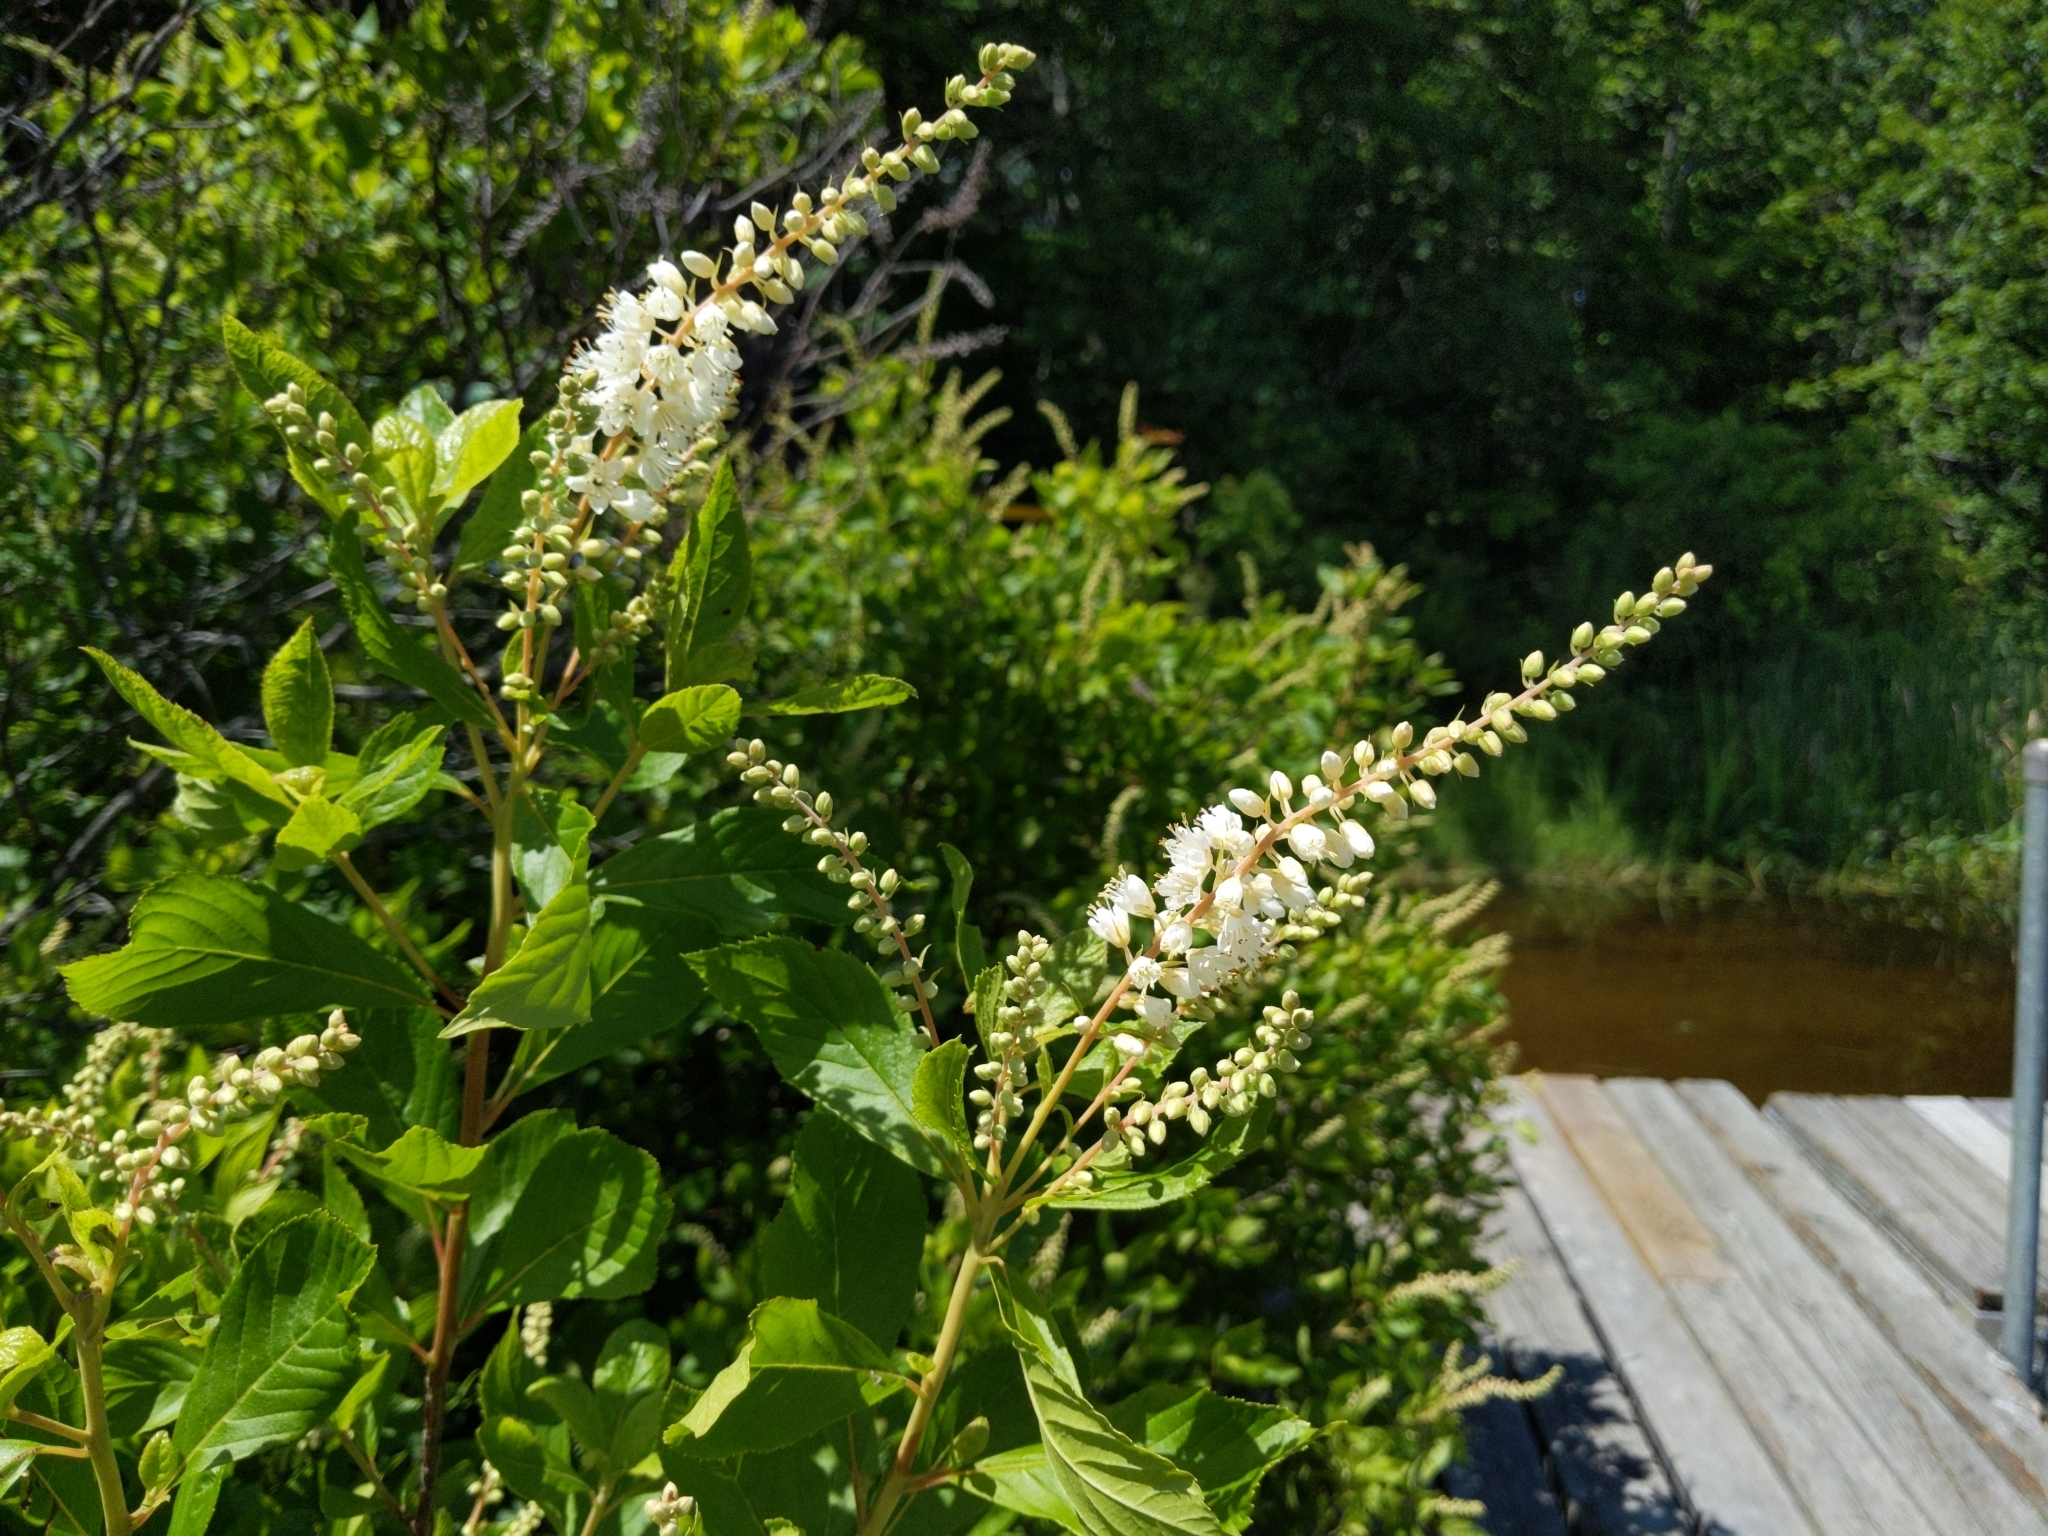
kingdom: Plantae
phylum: Tracheophyta
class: Magnoliopsida
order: Ericales
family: Clethraceae
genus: Clethra
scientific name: Clethra alnifolia
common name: Sweet pepperbush
